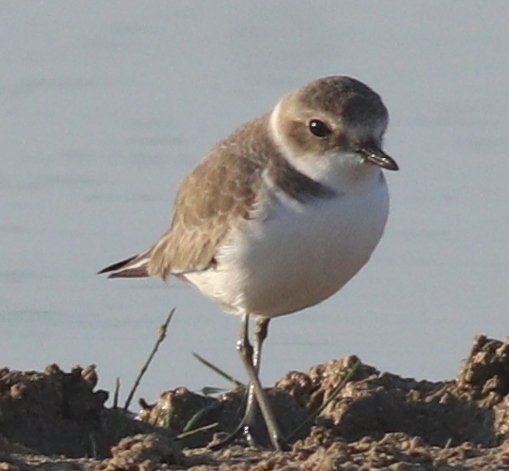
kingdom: Animalia
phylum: Chordata
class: Aves
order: Charadriiformes
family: Charadriidae
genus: Charadrius
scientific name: Charadrius alexandrinus
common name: Kentish plover
